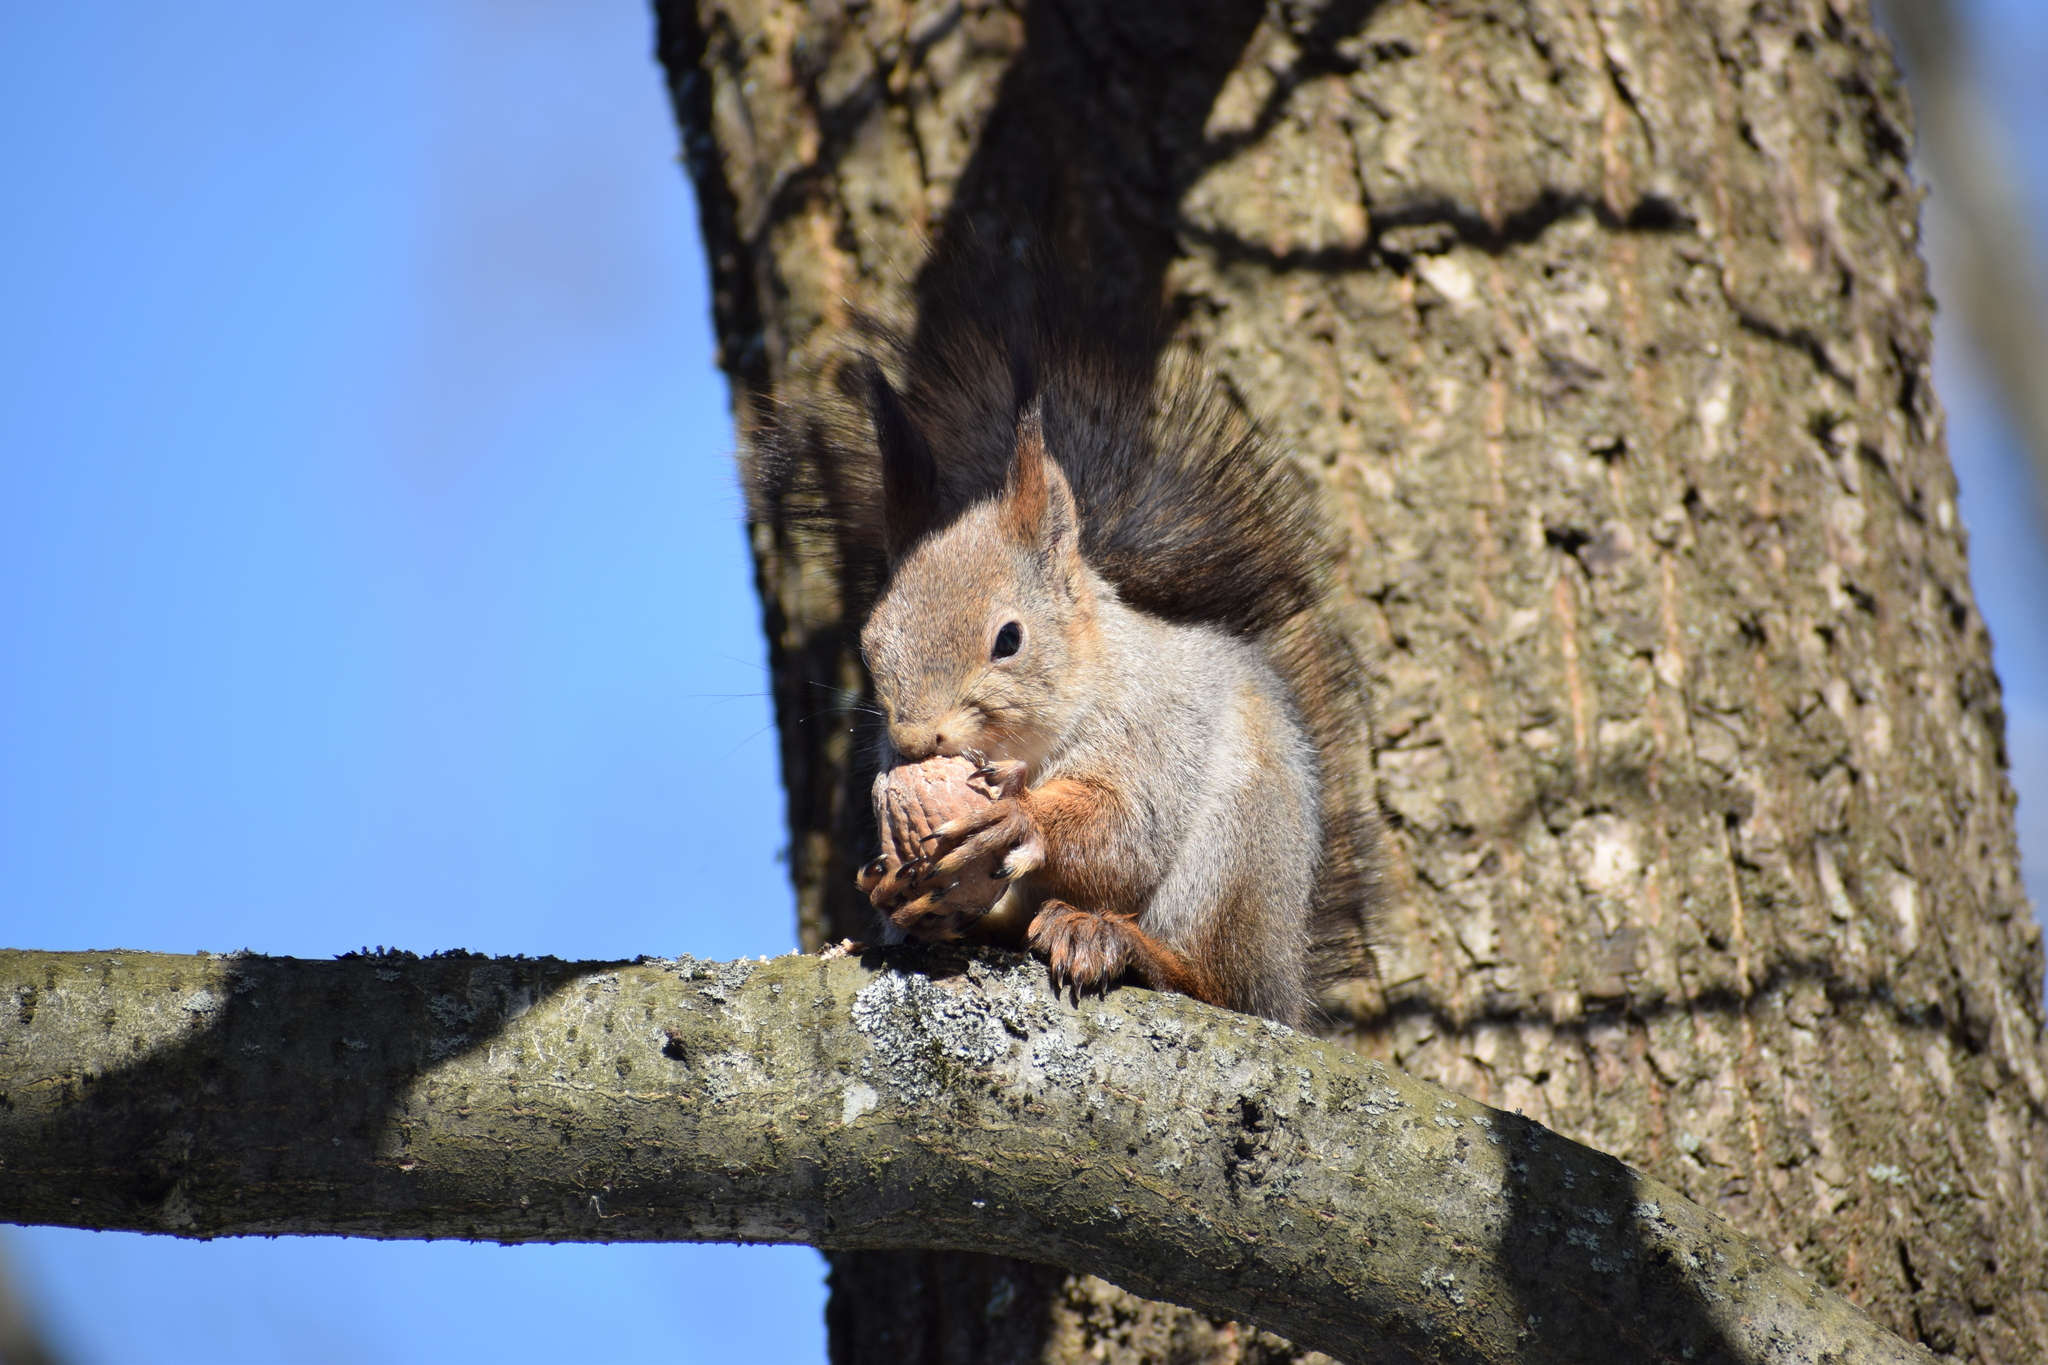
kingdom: Animalia
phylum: Chordata
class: Mammalia
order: Rodentia
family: Sciuridae
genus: Sciurus
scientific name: Sciurus vulgaris
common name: Eurasian red squirrel
